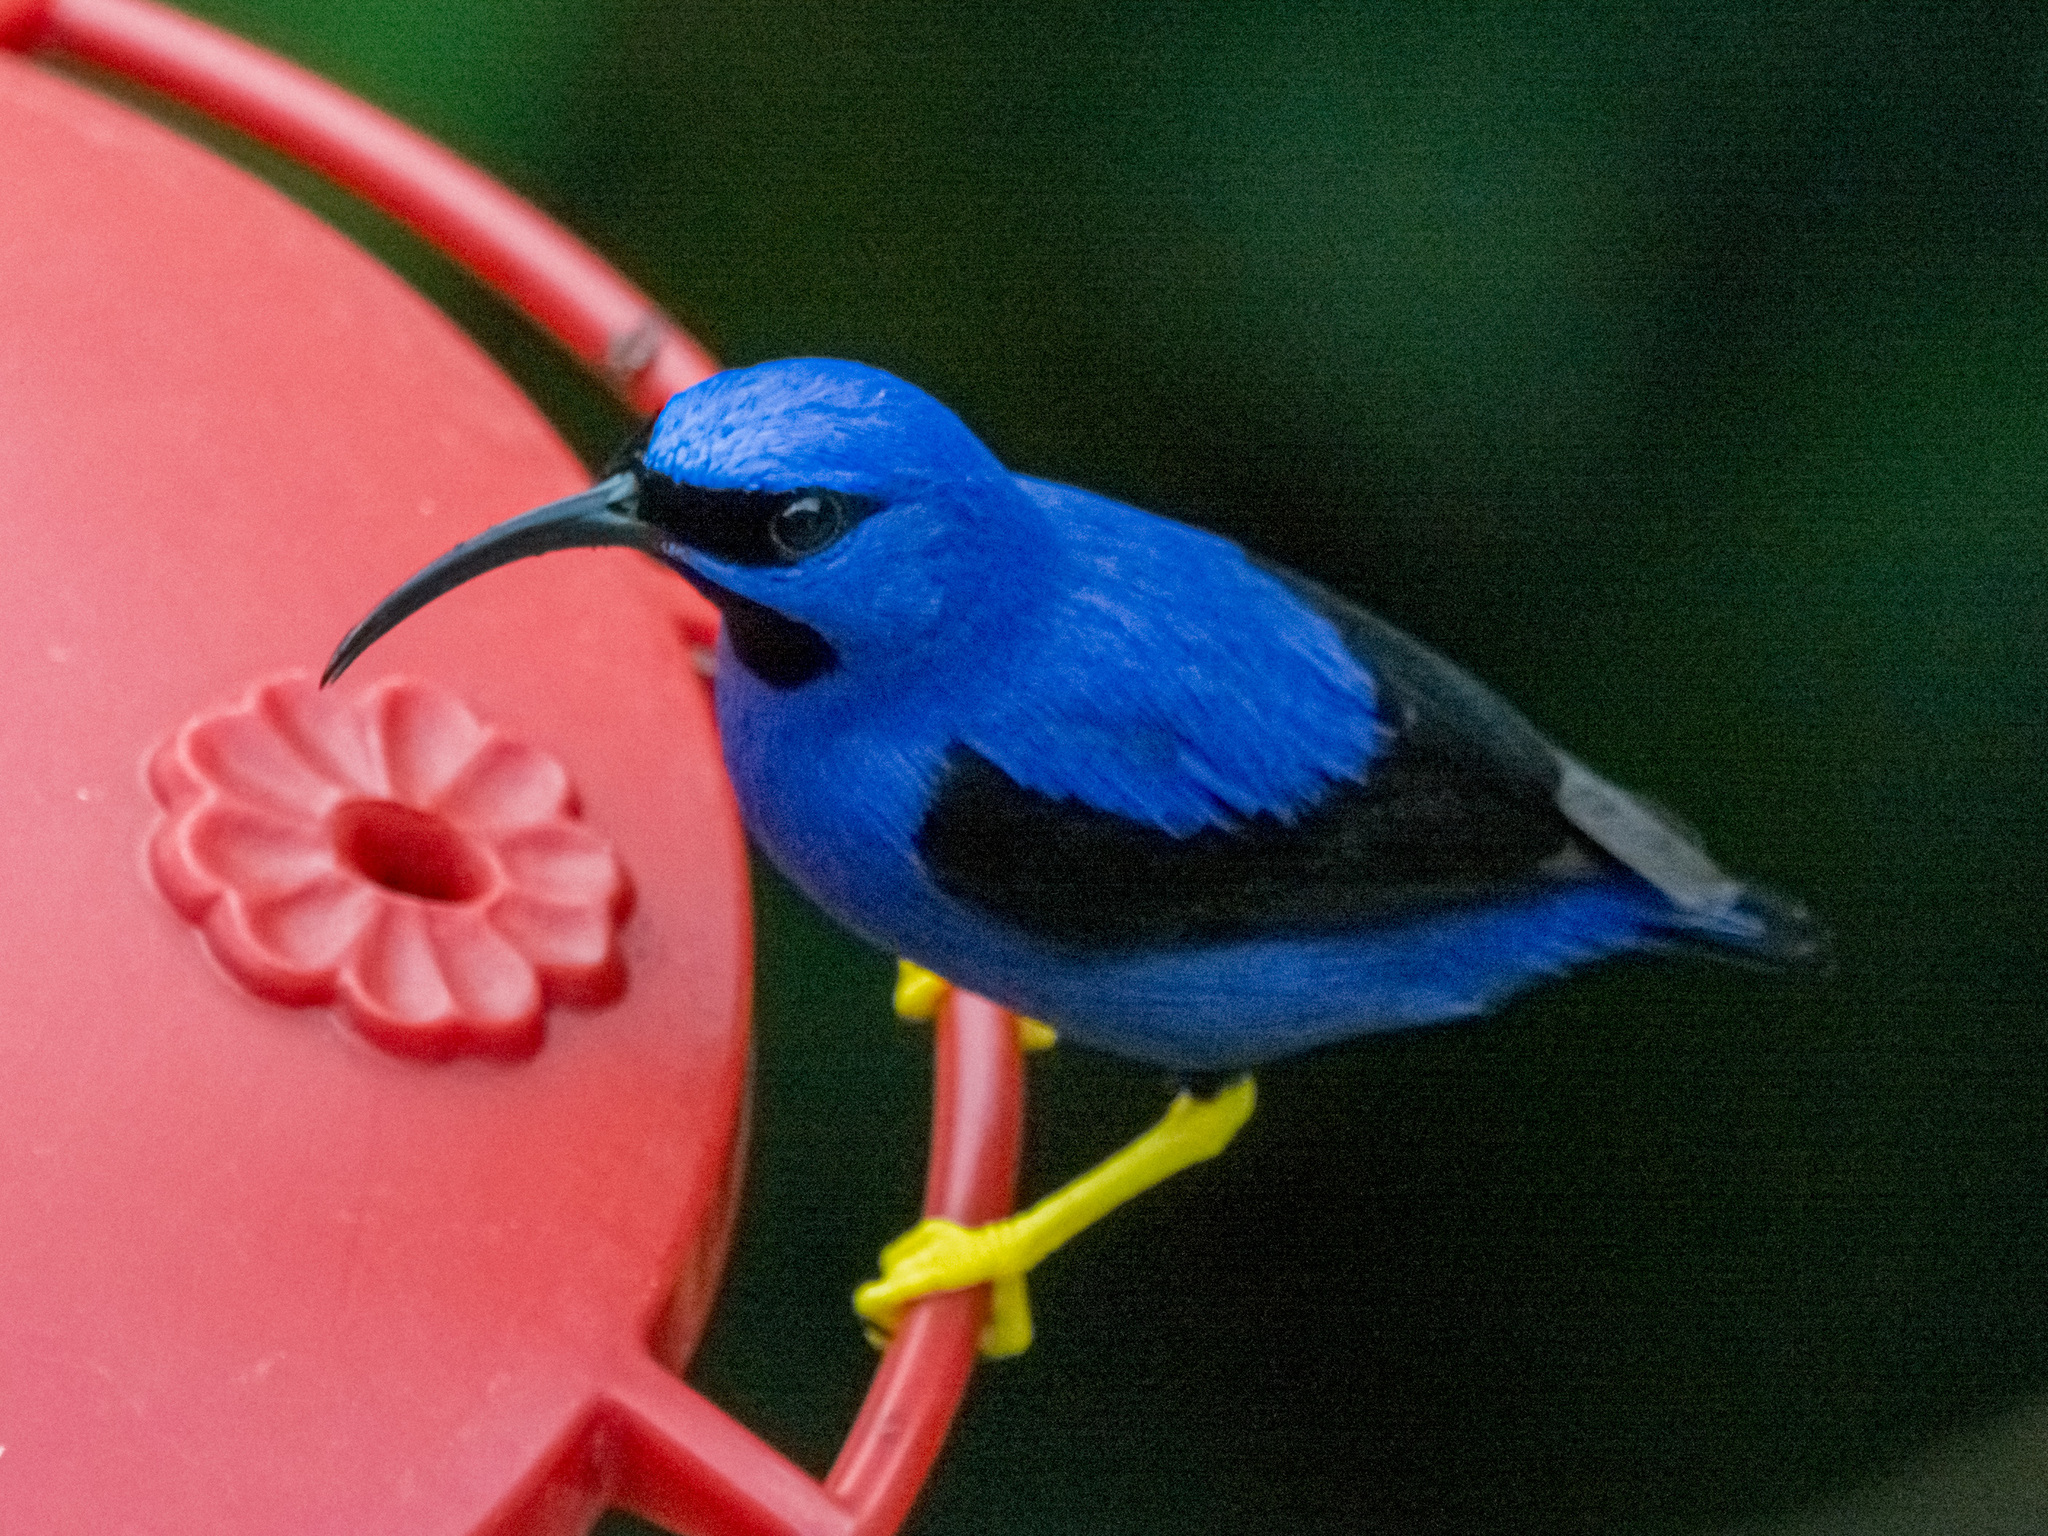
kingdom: Animalia
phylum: Chordata
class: Aves
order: Passeriformes
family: Thraupidae
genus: Cyanerpes
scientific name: Cyanerpes caeruleus
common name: Purple honeycreeper
